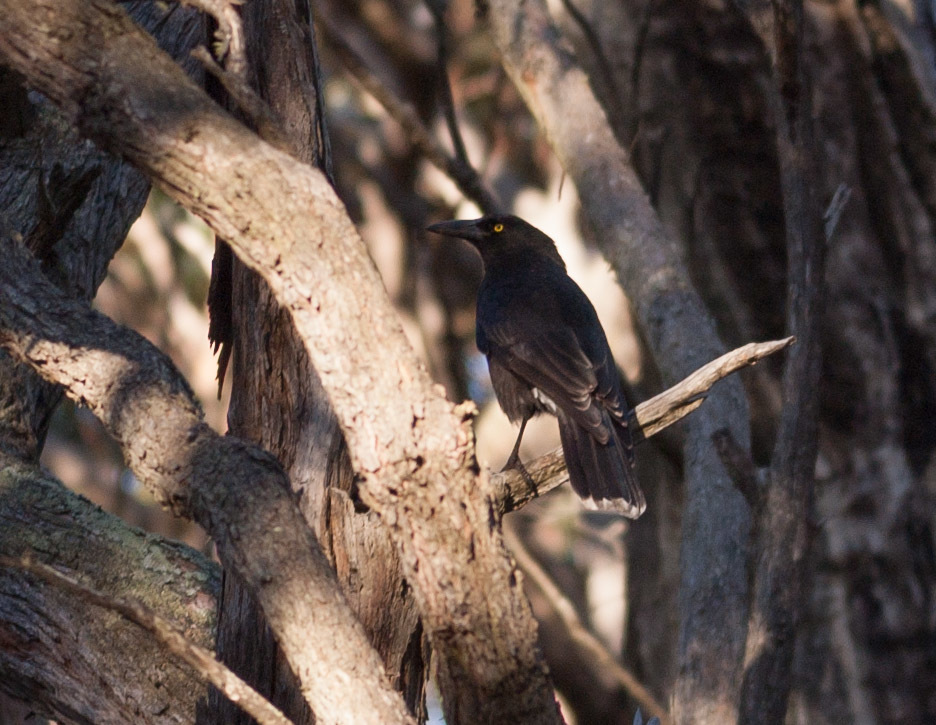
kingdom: Animalia
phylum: Chordata
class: Aves
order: Passeriformes
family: Cracticidae
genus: Strepera
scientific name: Strepera versicolor
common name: Grey currawong
